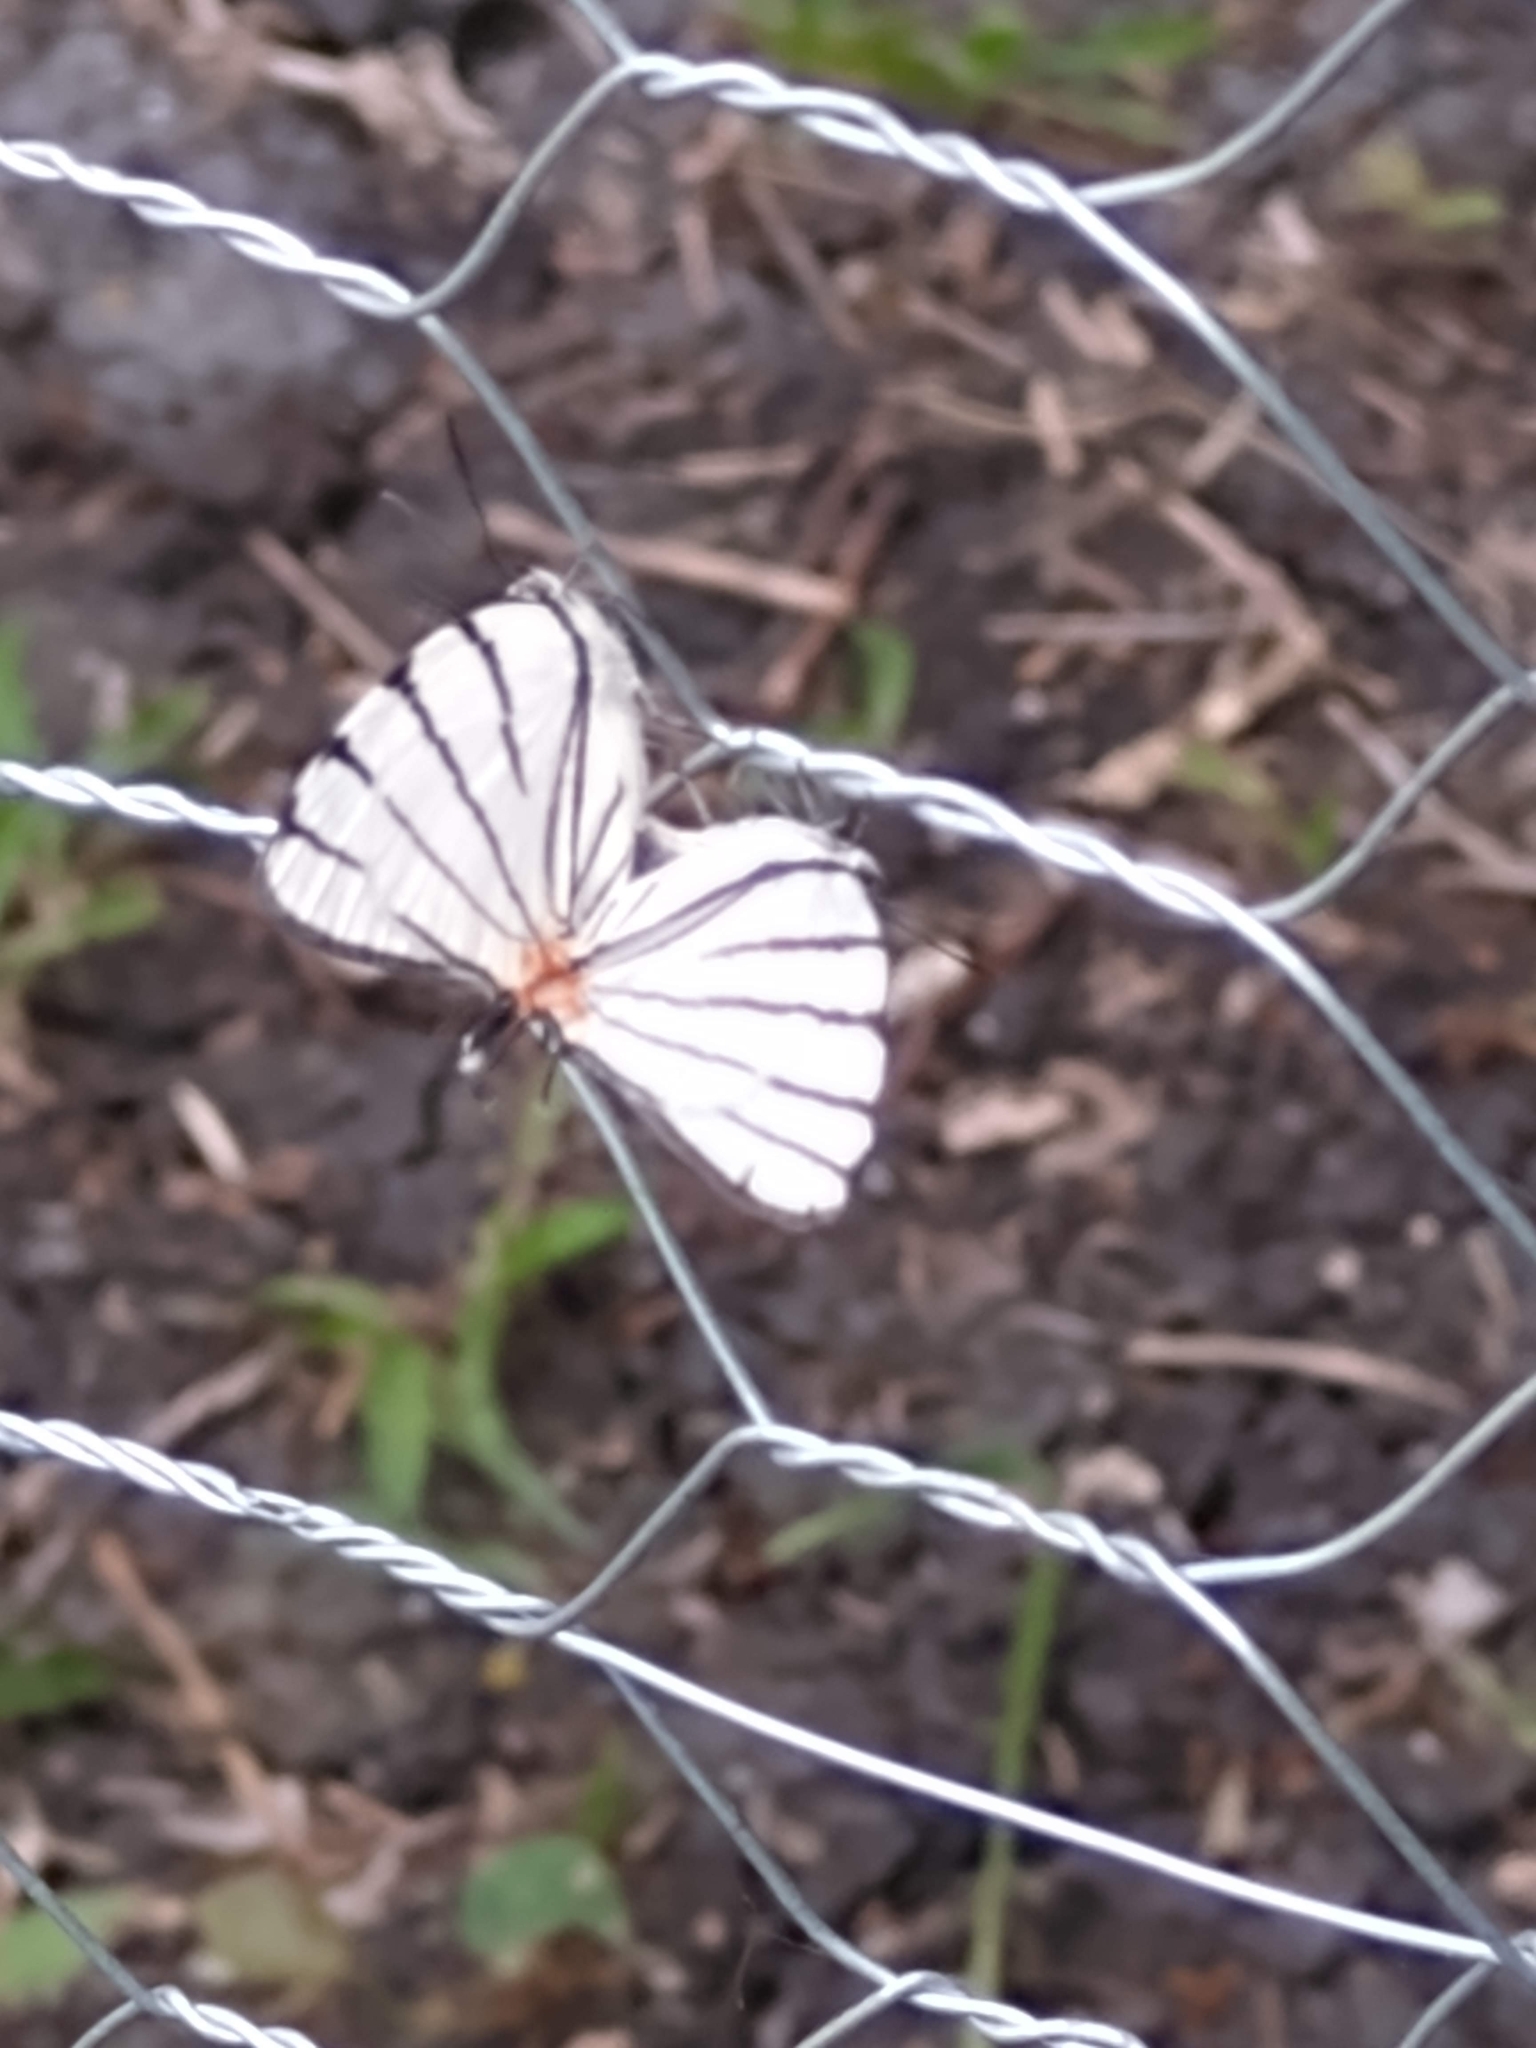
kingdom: Animalia
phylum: Arthropoda
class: Insecta
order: Lepidoptera
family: Lycaenidae
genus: Arawacus
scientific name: Arawacus sito
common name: Fine-lined hairstreak
